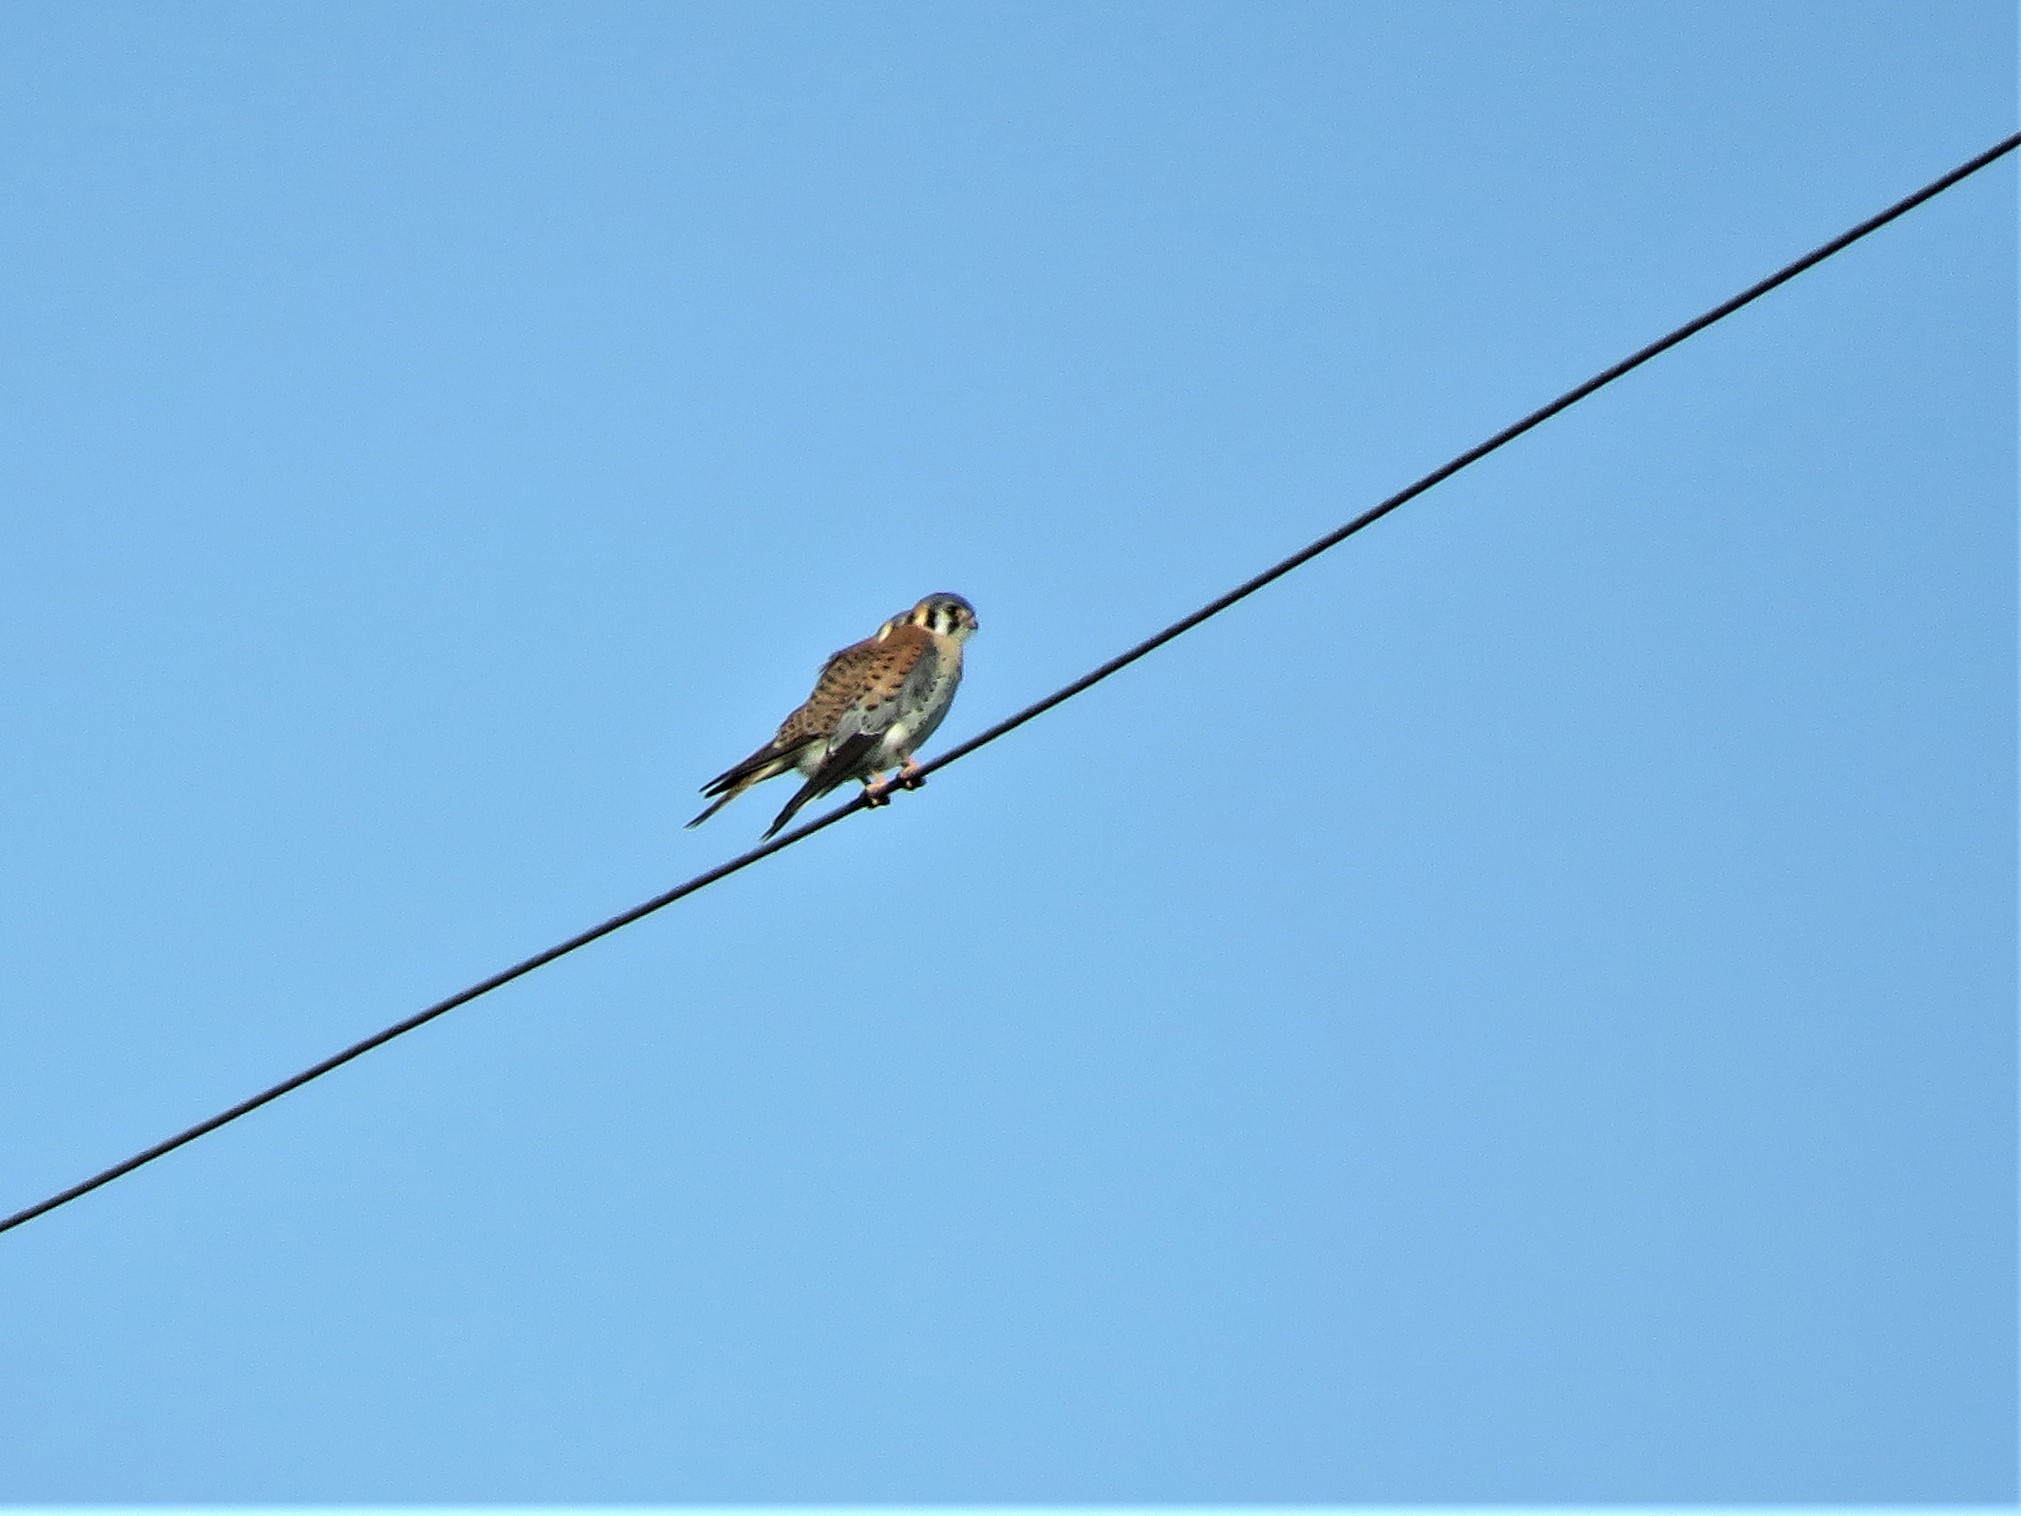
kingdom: Animalia
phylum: Chordata
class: Aves
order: Falconiformes
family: Falconidae
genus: Falco
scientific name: Falco sparverius
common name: American kestrel
